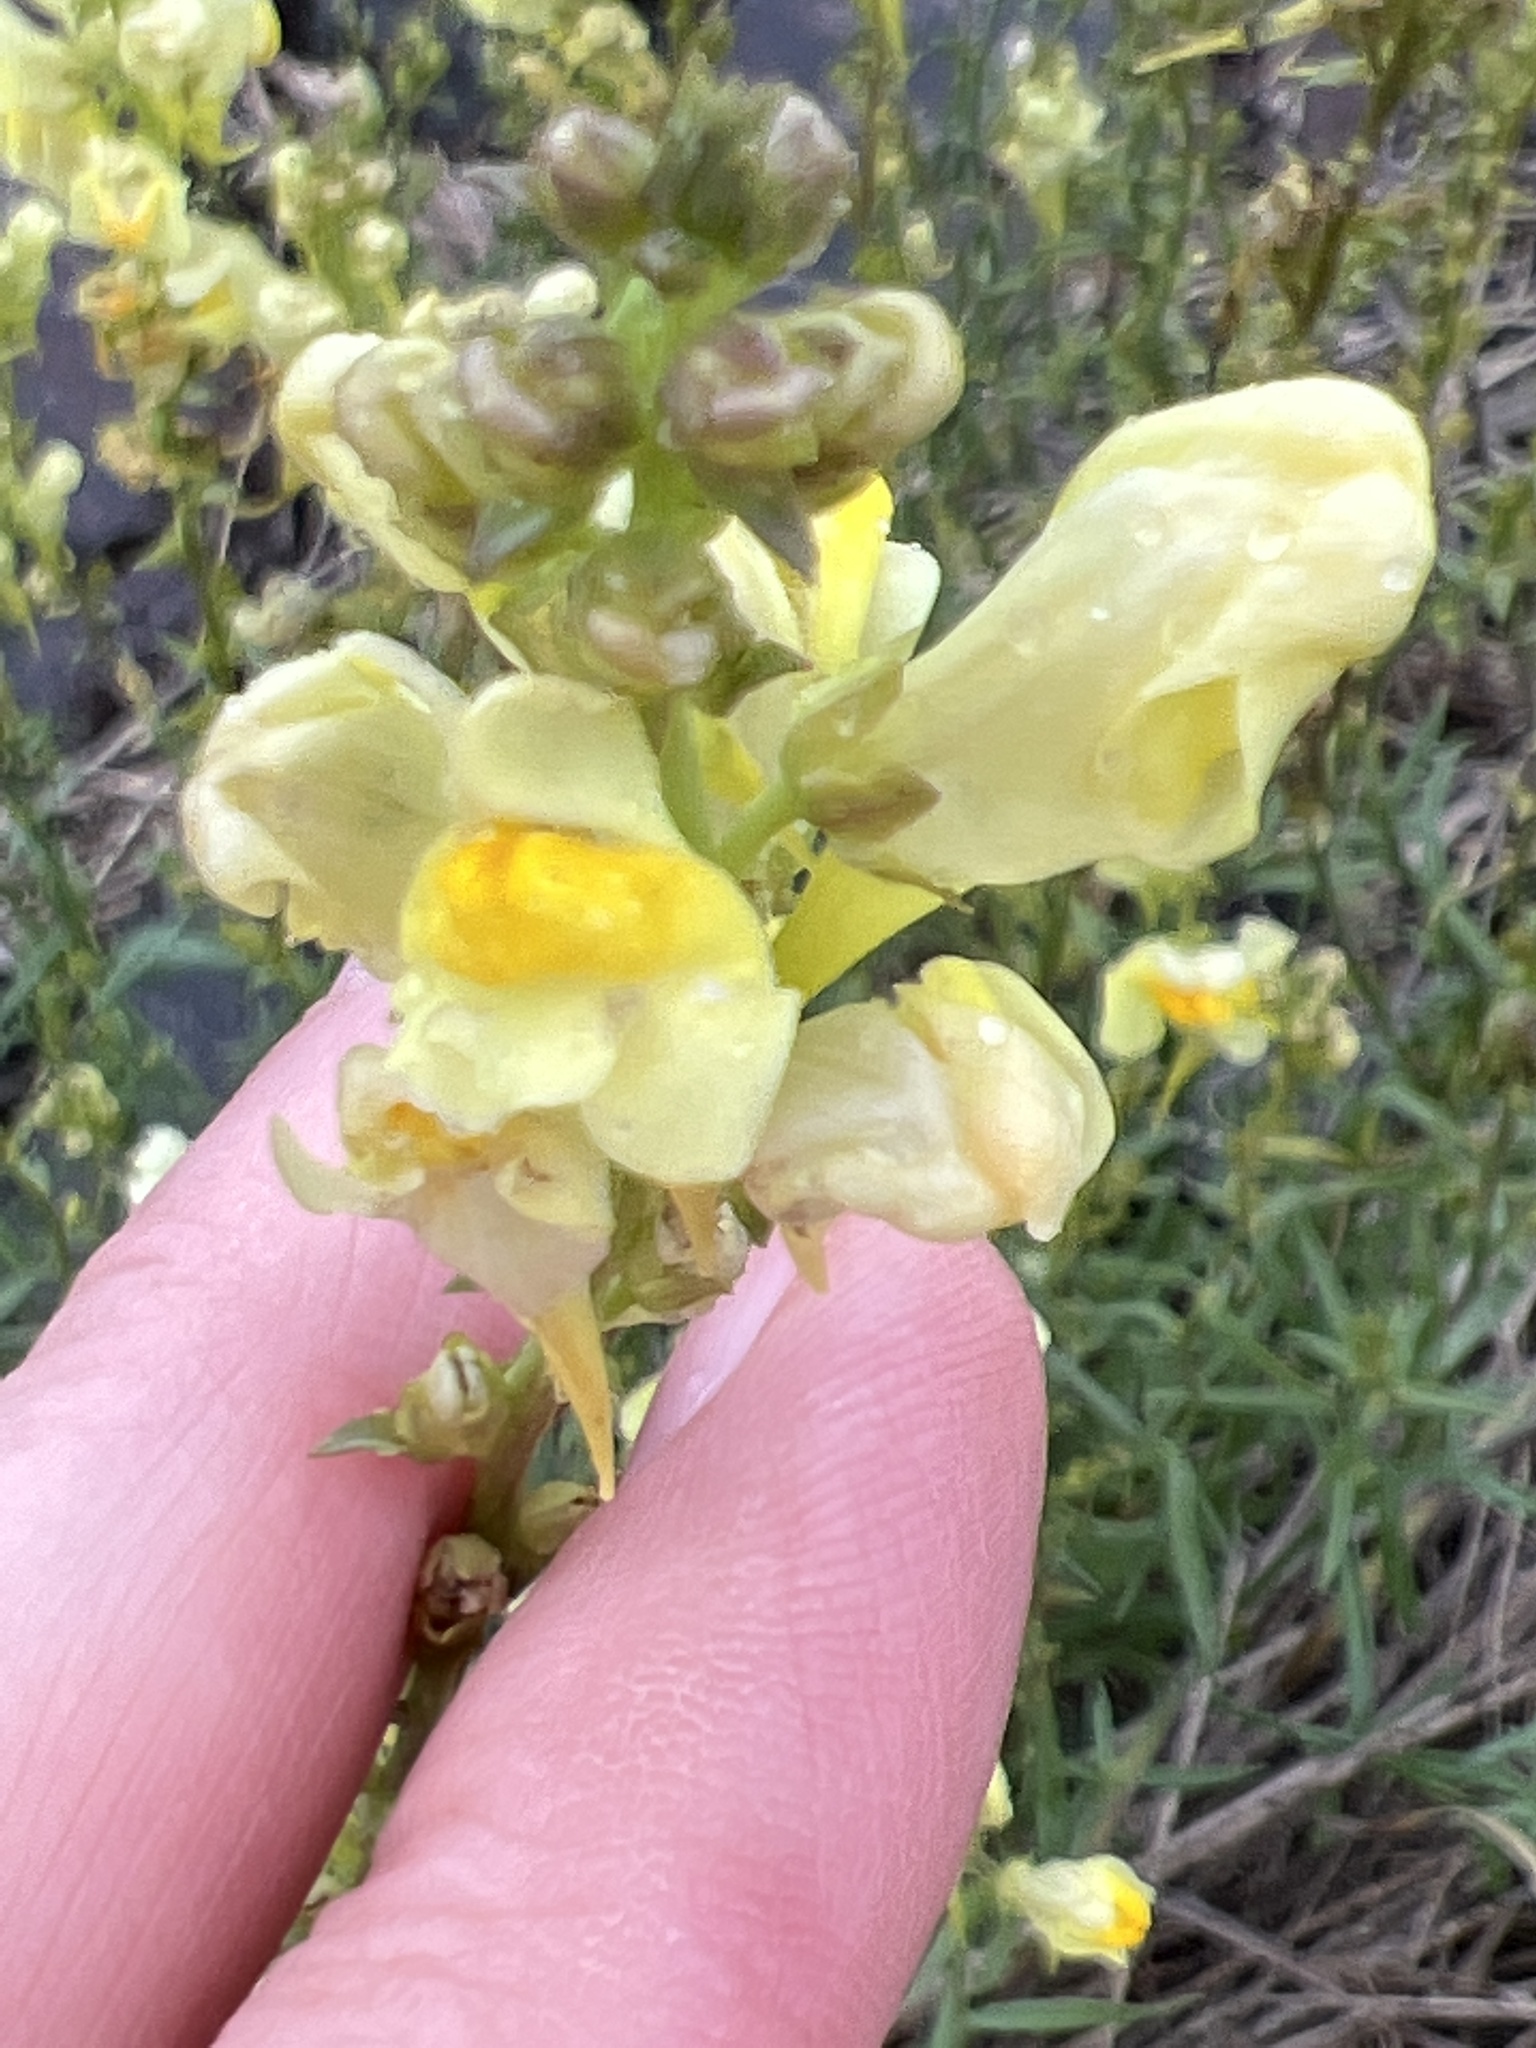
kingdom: Plantae
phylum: Tracheophyta
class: Magnoliopsida
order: Lamiales
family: Plantaginaceae
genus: Linaria
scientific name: Linaria vulgaris
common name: Butter and eggs
